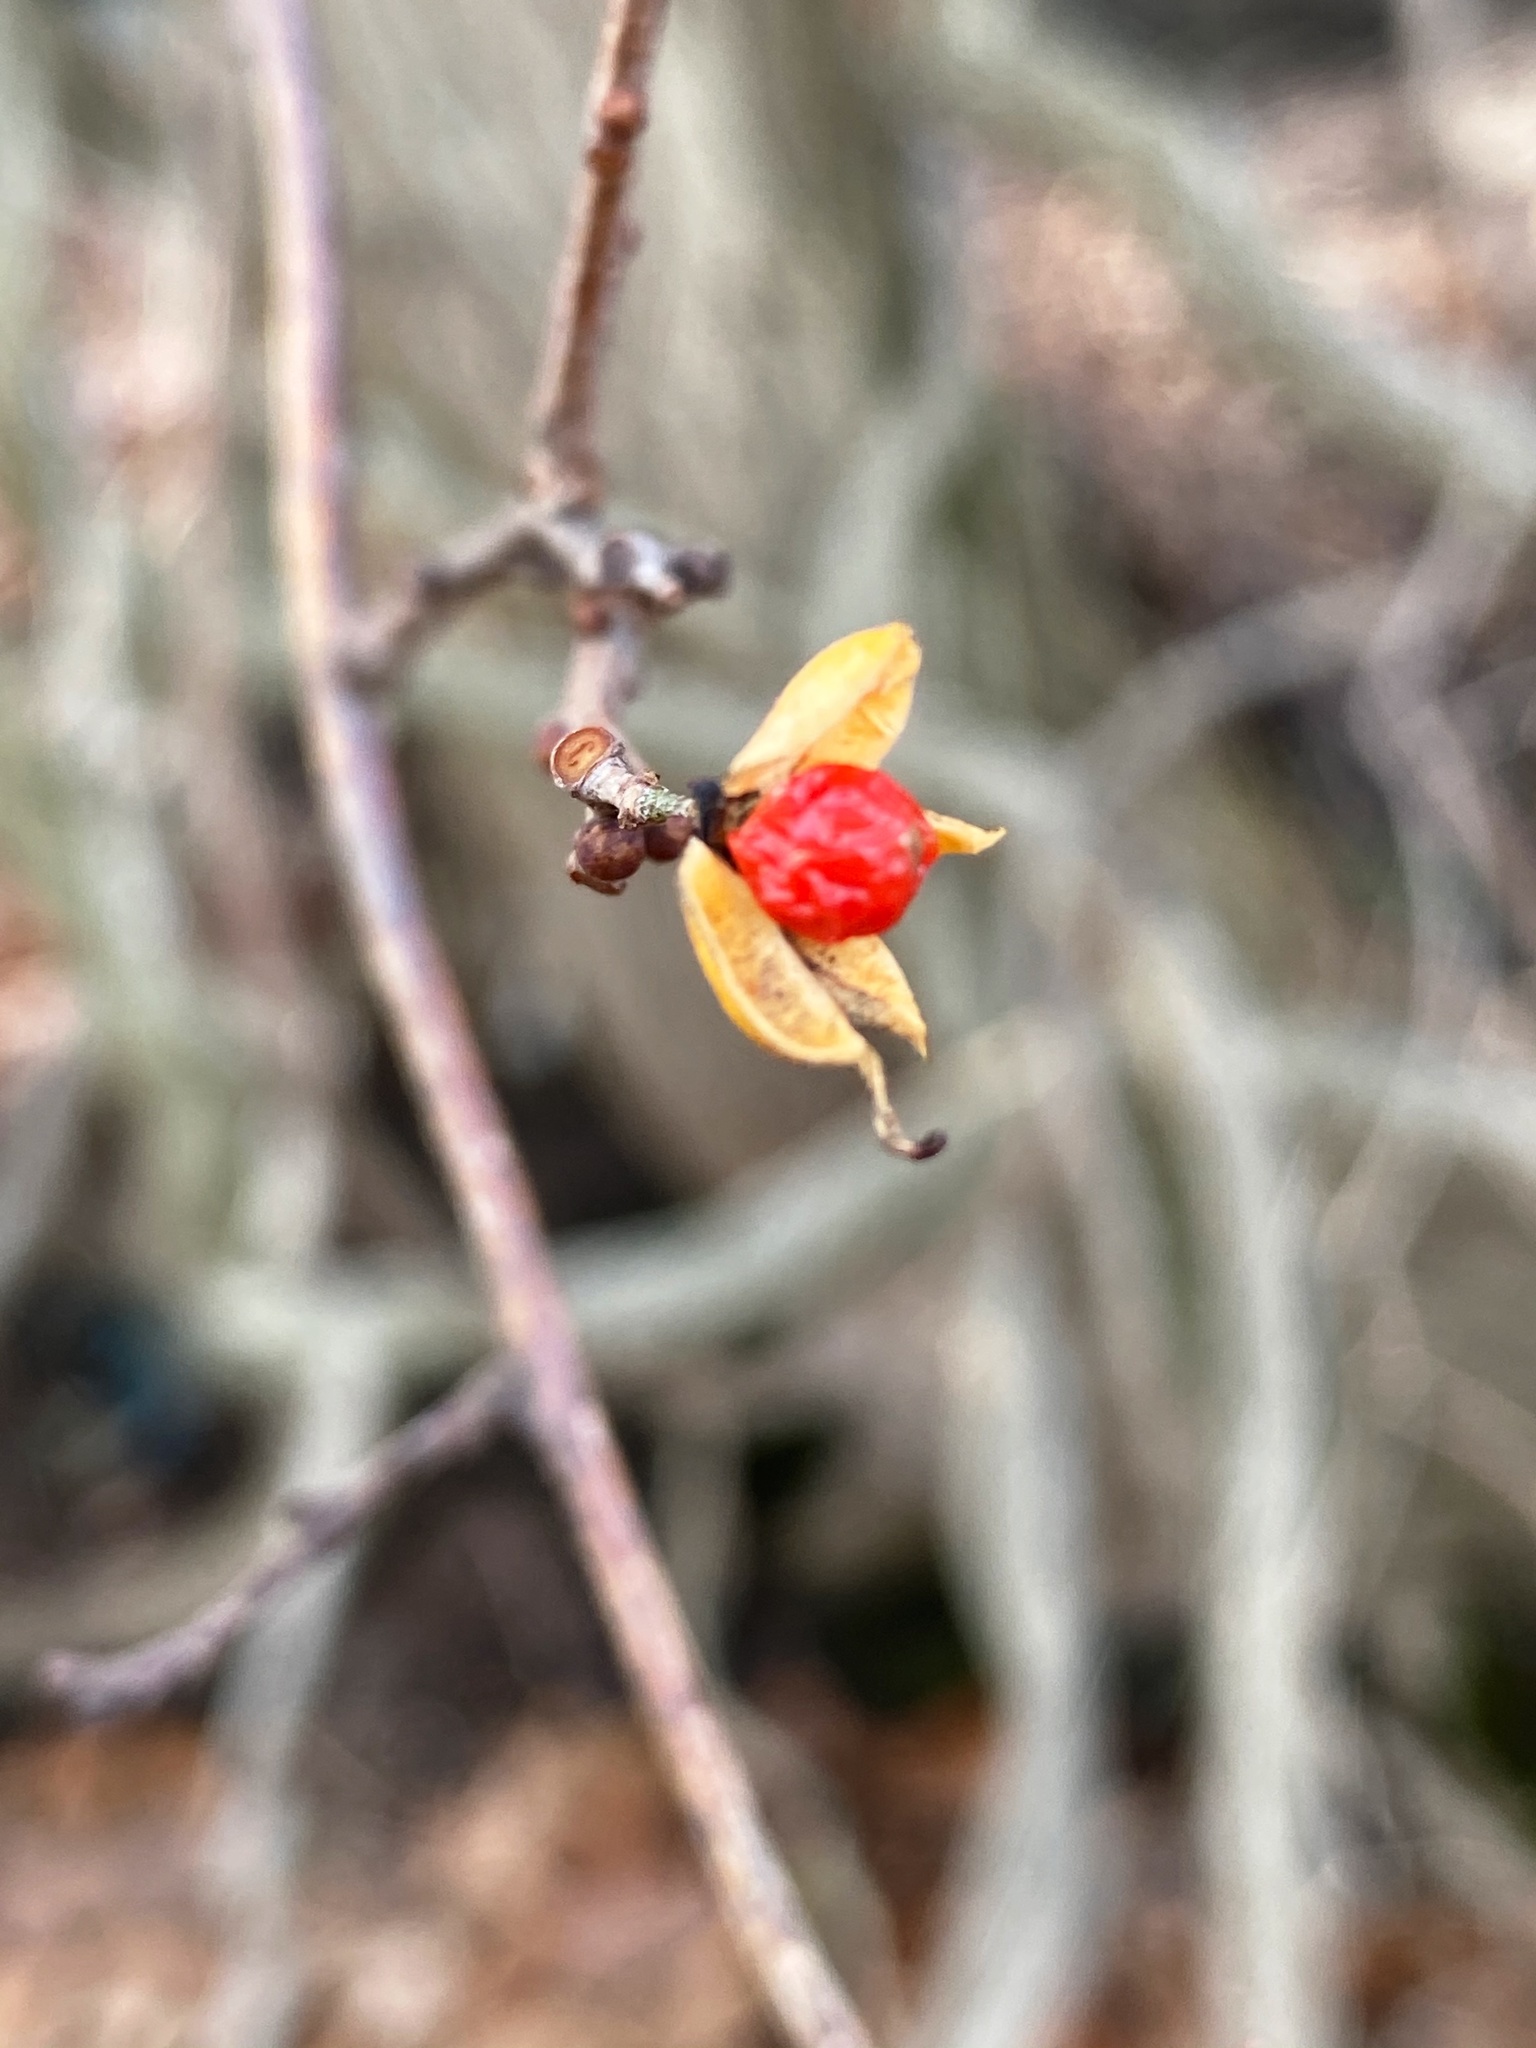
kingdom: Plantae
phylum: Tracheophyta
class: Magnoliopsida
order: Celastrales
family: Celastraceae
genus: Celastrus
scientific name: Celastrus orbiculatus
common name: Oriental bittersweet
